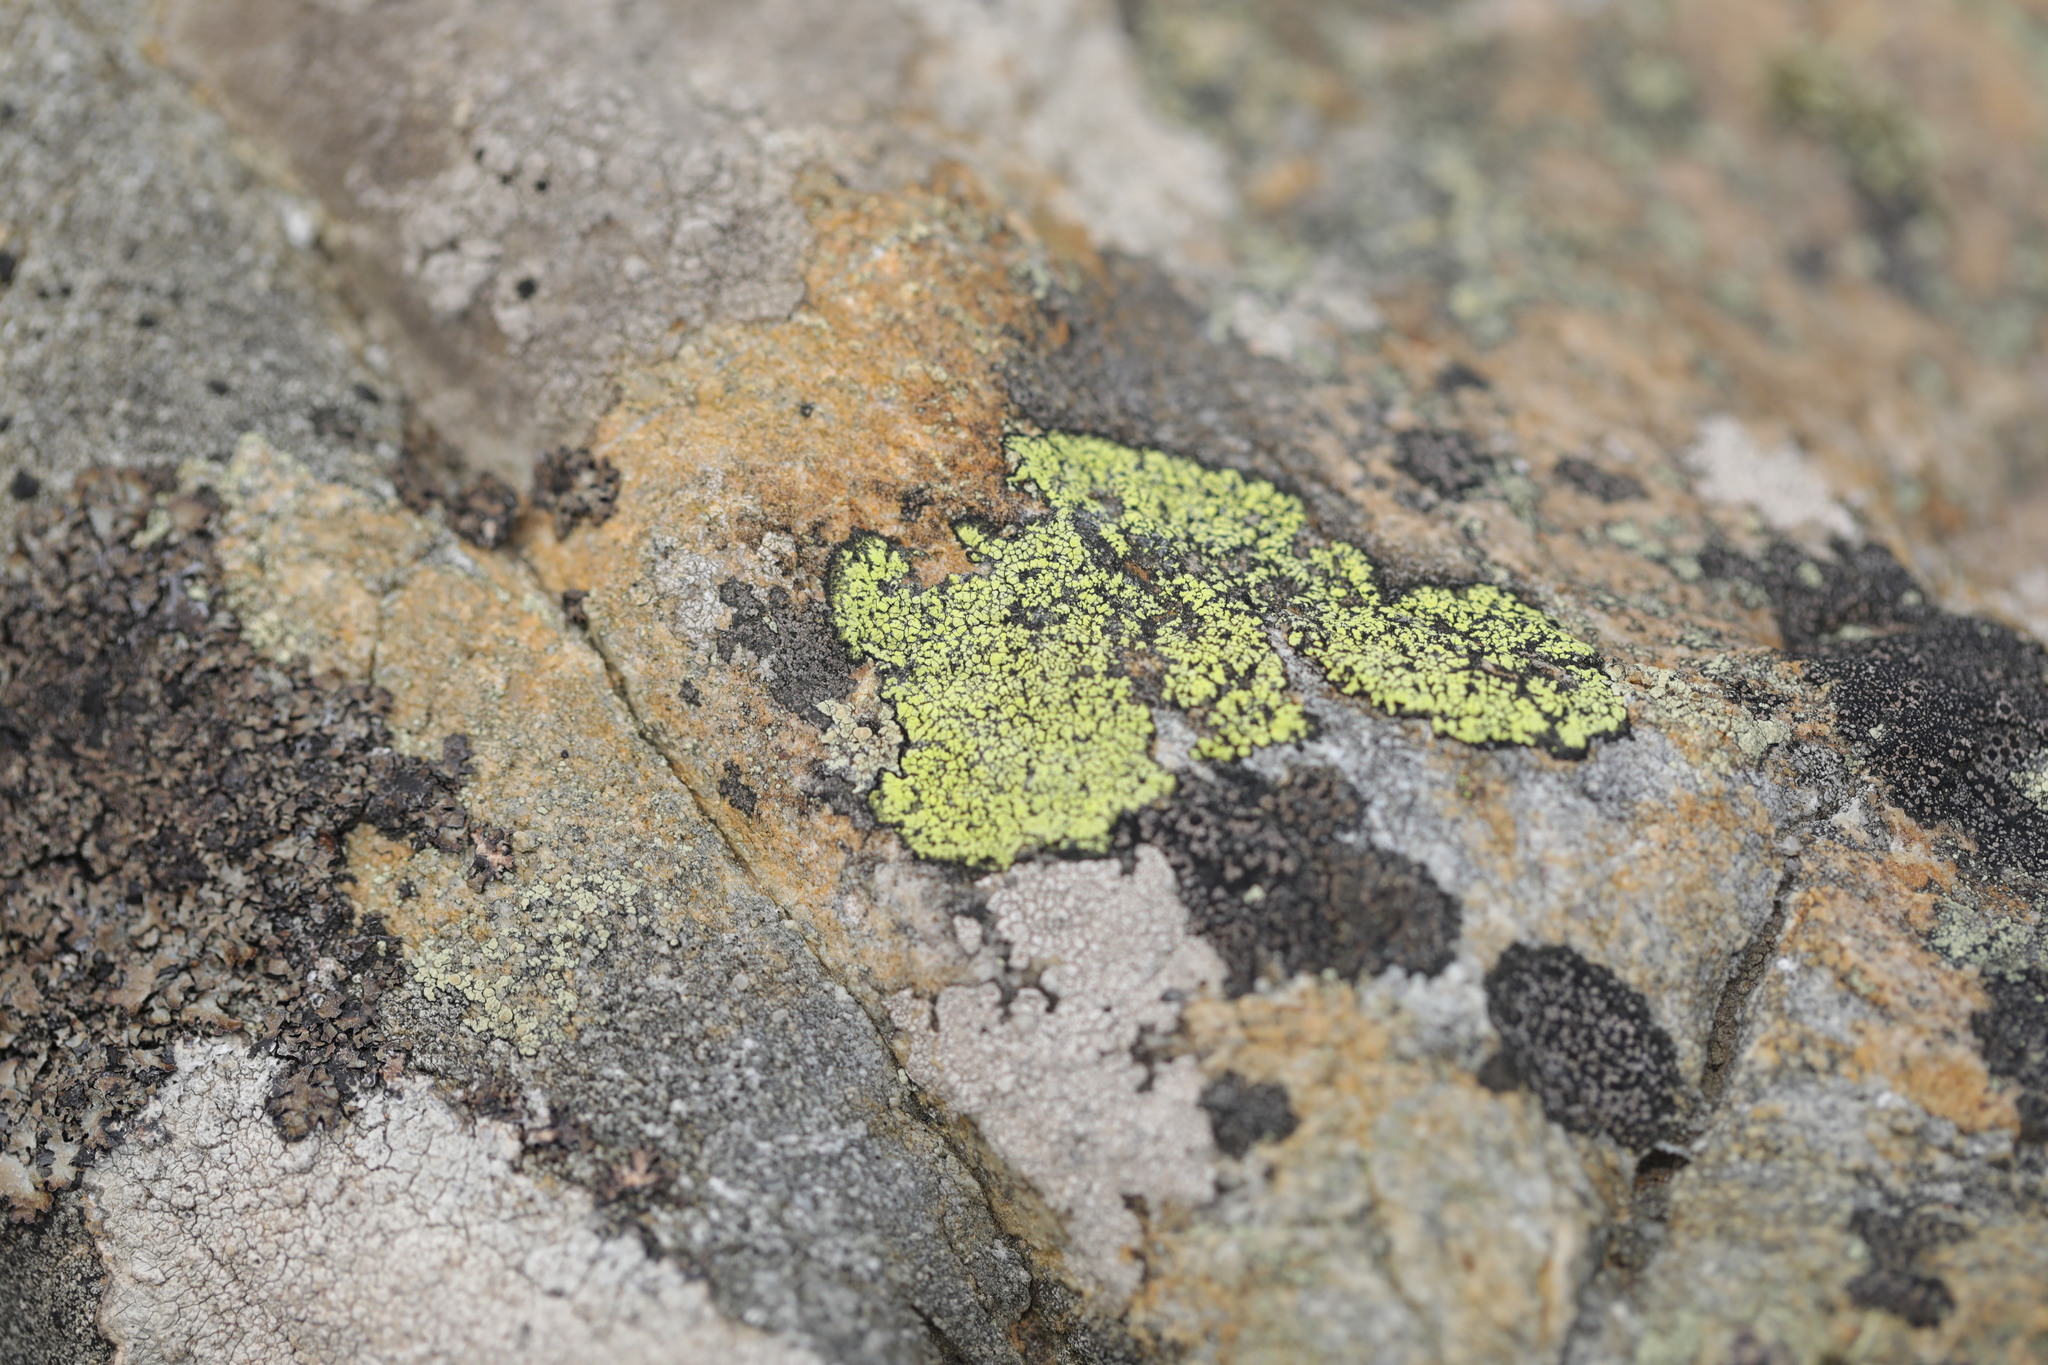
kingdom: Fungi
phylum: Ascomycota
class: Lecanoromycetes
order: Rhizocarpales
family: Rhizocarpaceae
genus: Rhizocarpon
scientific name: Rhizocarpon geographicum
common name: Yellow map lichen
